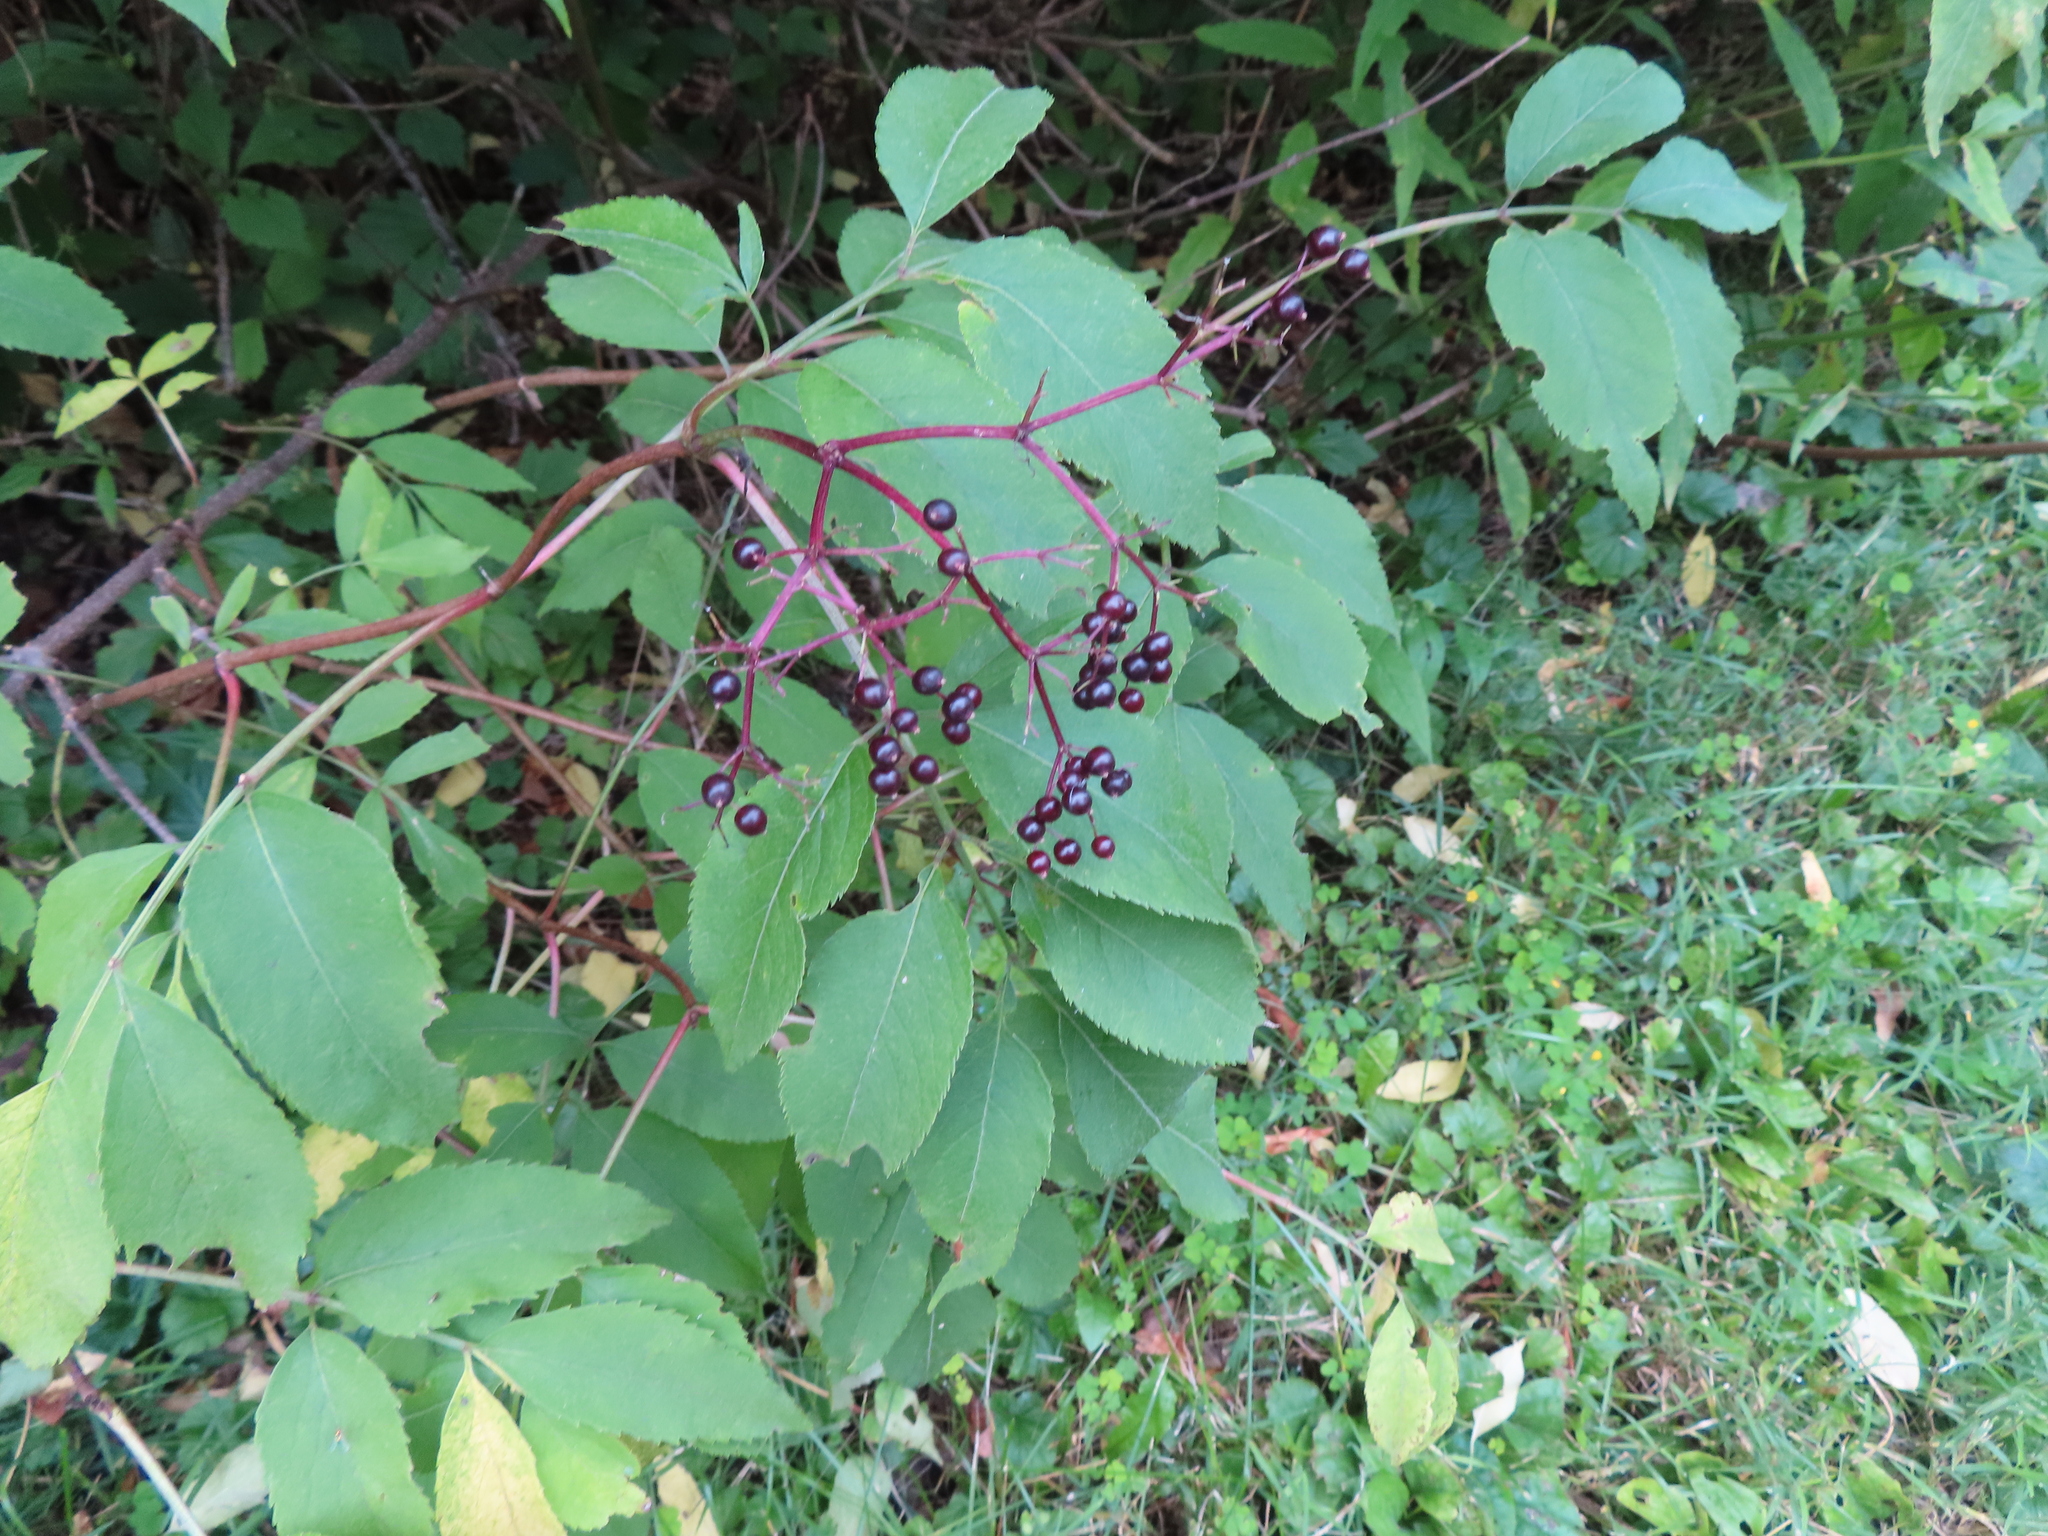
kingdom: Plantae
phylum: Tracheophyta
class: Magnoliopsida
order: Dipsacales
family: Viburnaceae
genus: Sambucus
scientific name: Sambucus canadensis
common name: American elder
